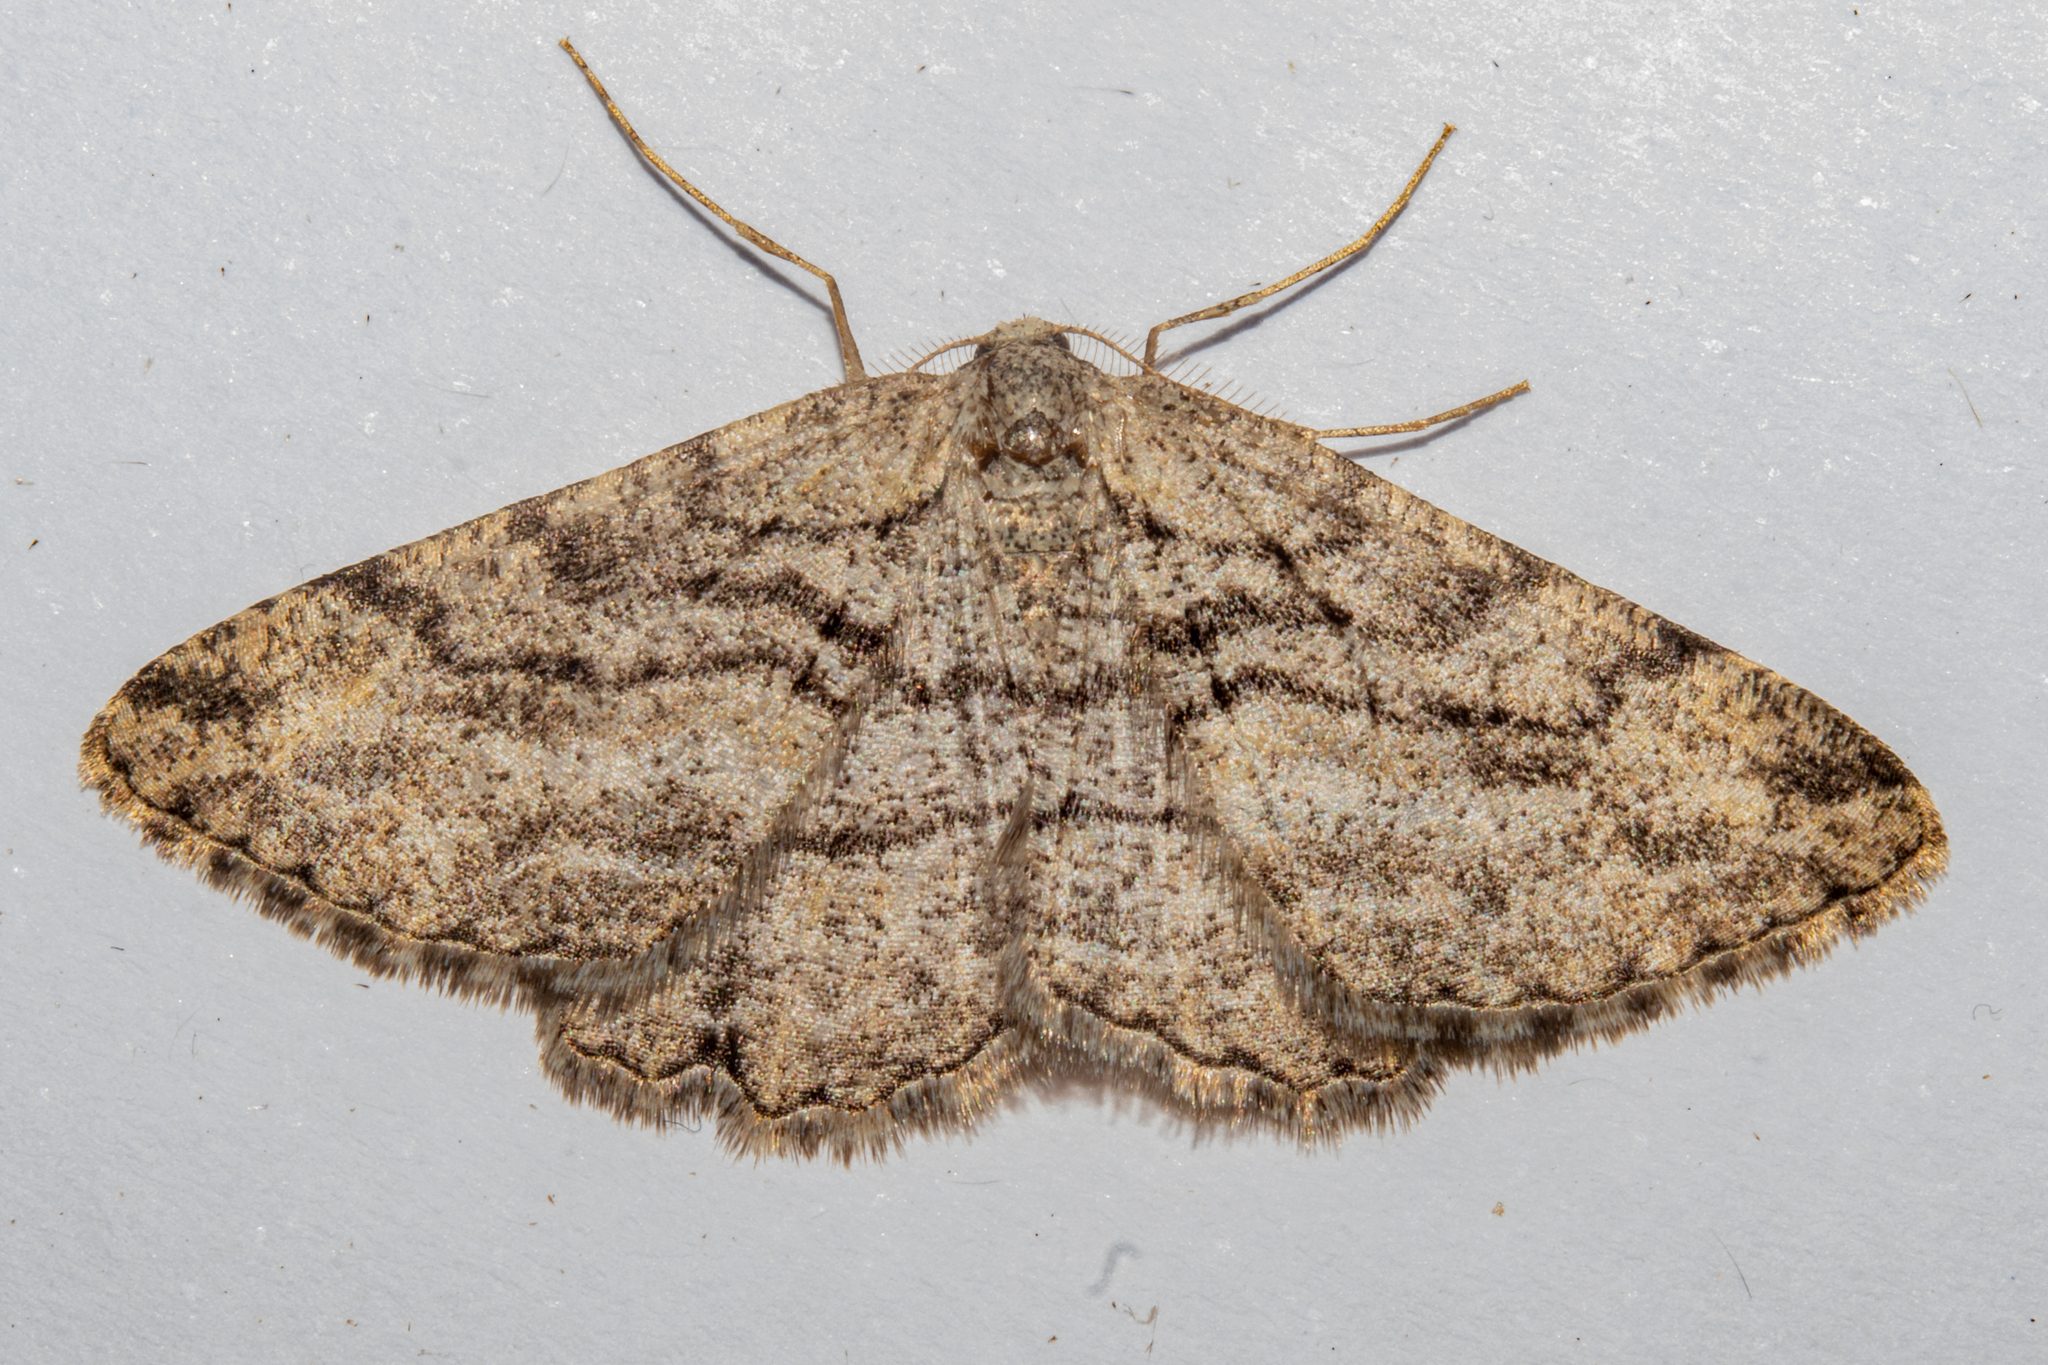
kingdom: Animalia
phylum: Arthropoda
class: Insecta
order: Lepidoptera
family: Geometridae
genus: Zermizinga
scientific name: Zermizinga indocilisaria
